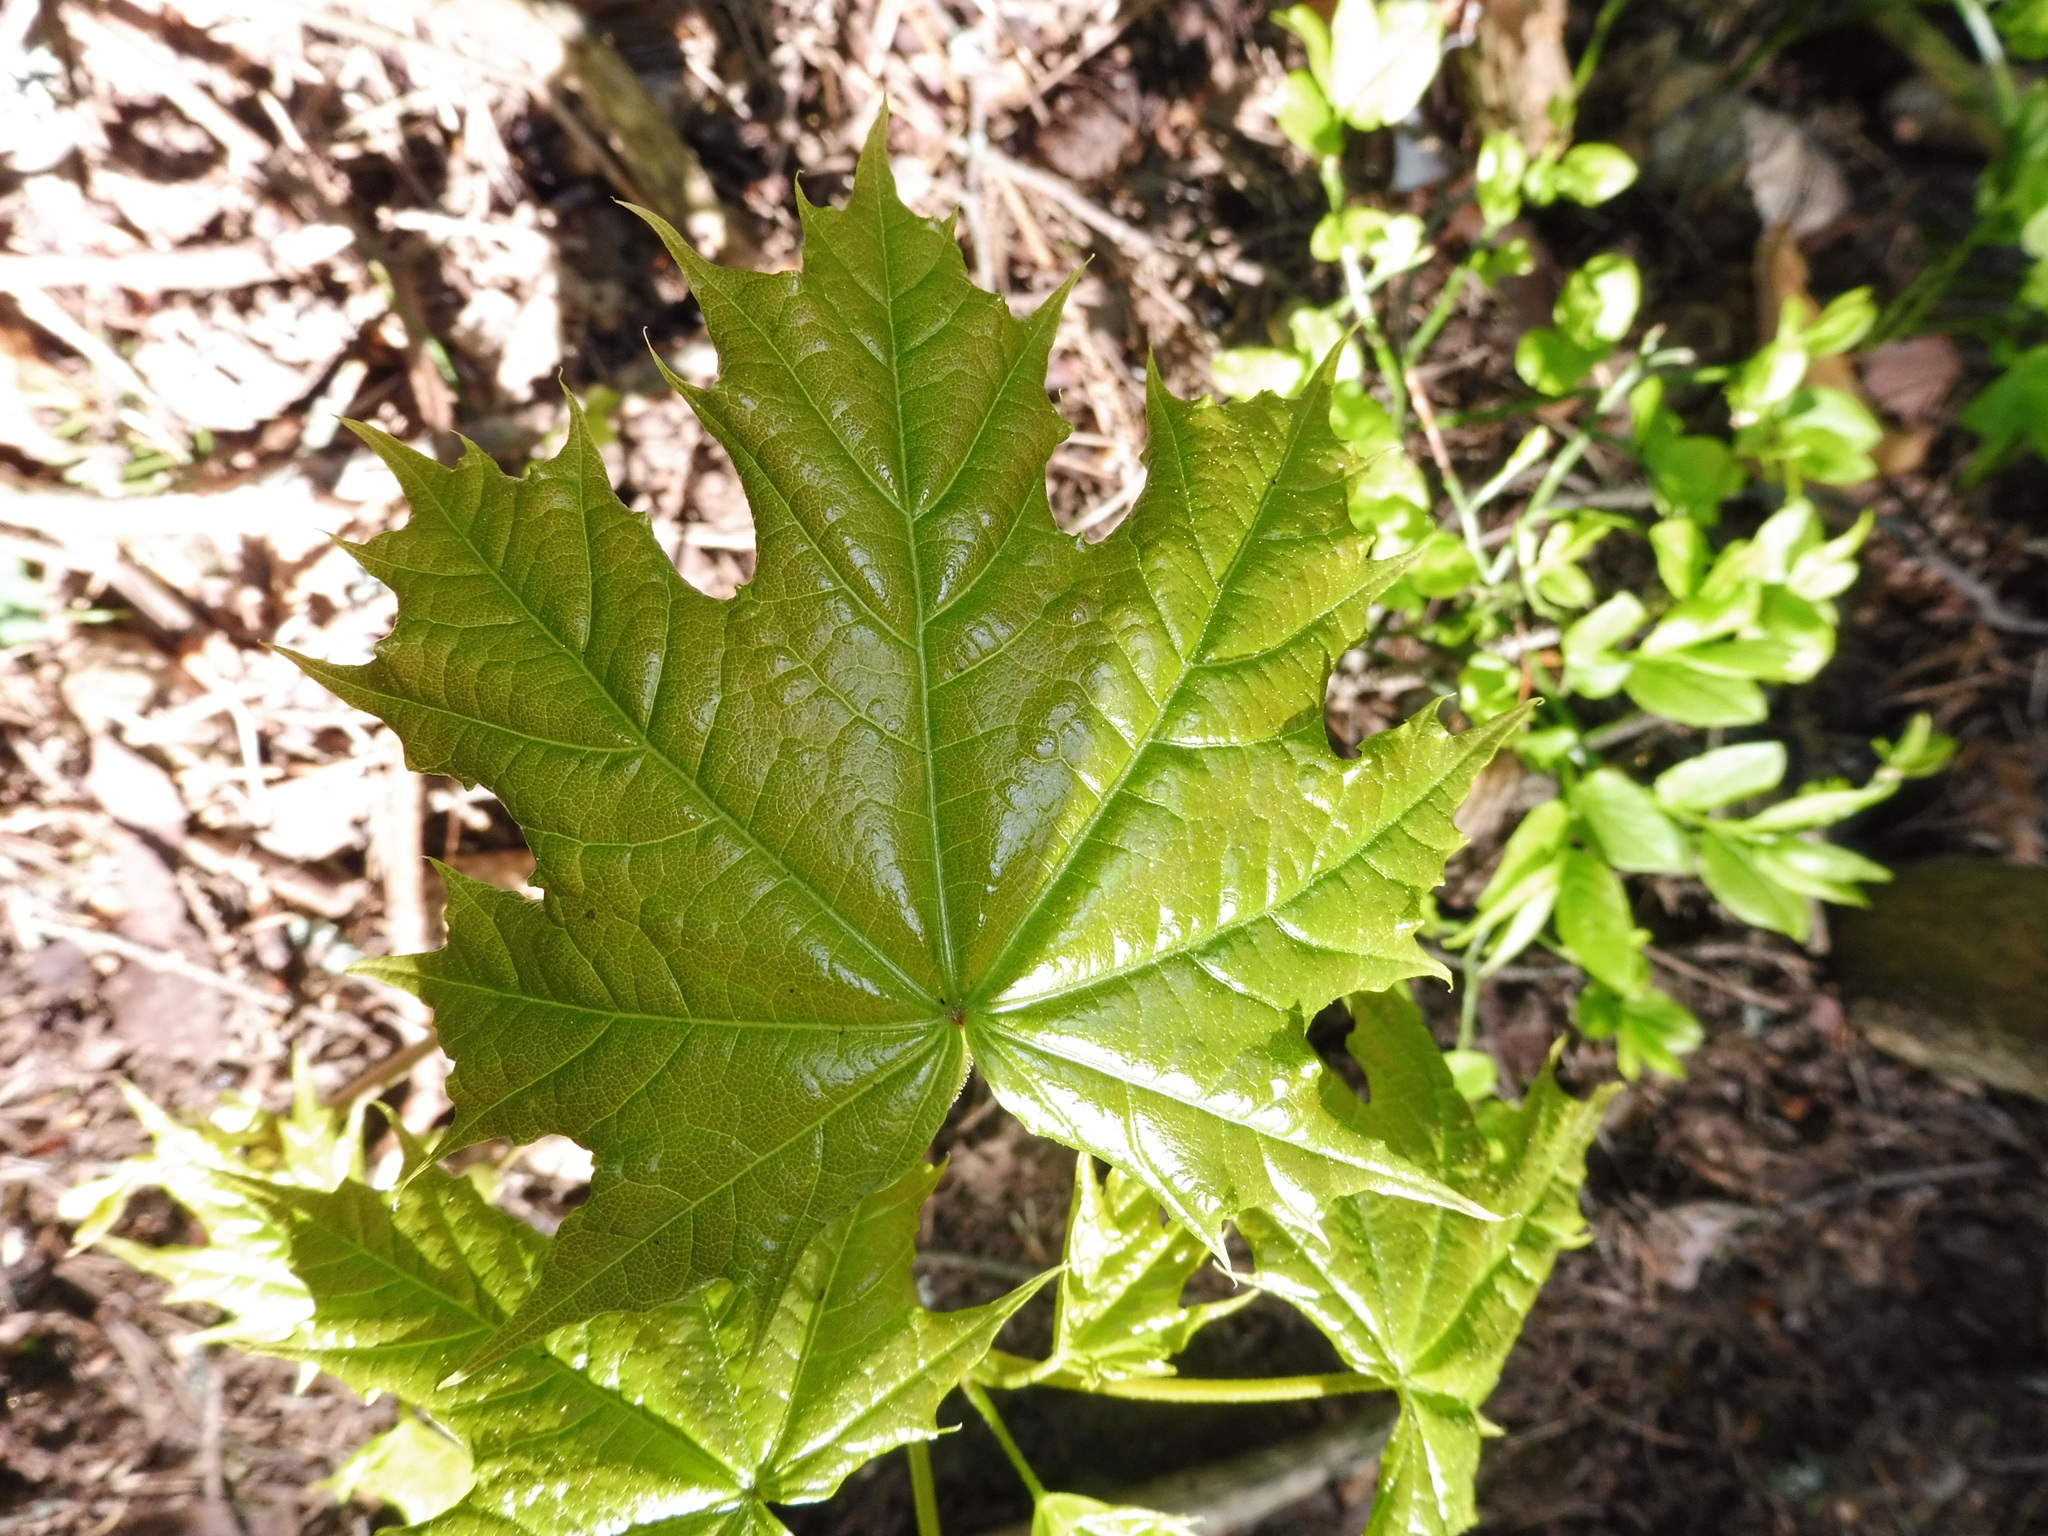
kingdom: Plantae
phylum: Tracheophyta
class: Magnoliopsida
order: Sapindales
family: Sapindaceae
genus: Acer
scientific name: Acer platanoides
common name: Norway maple
